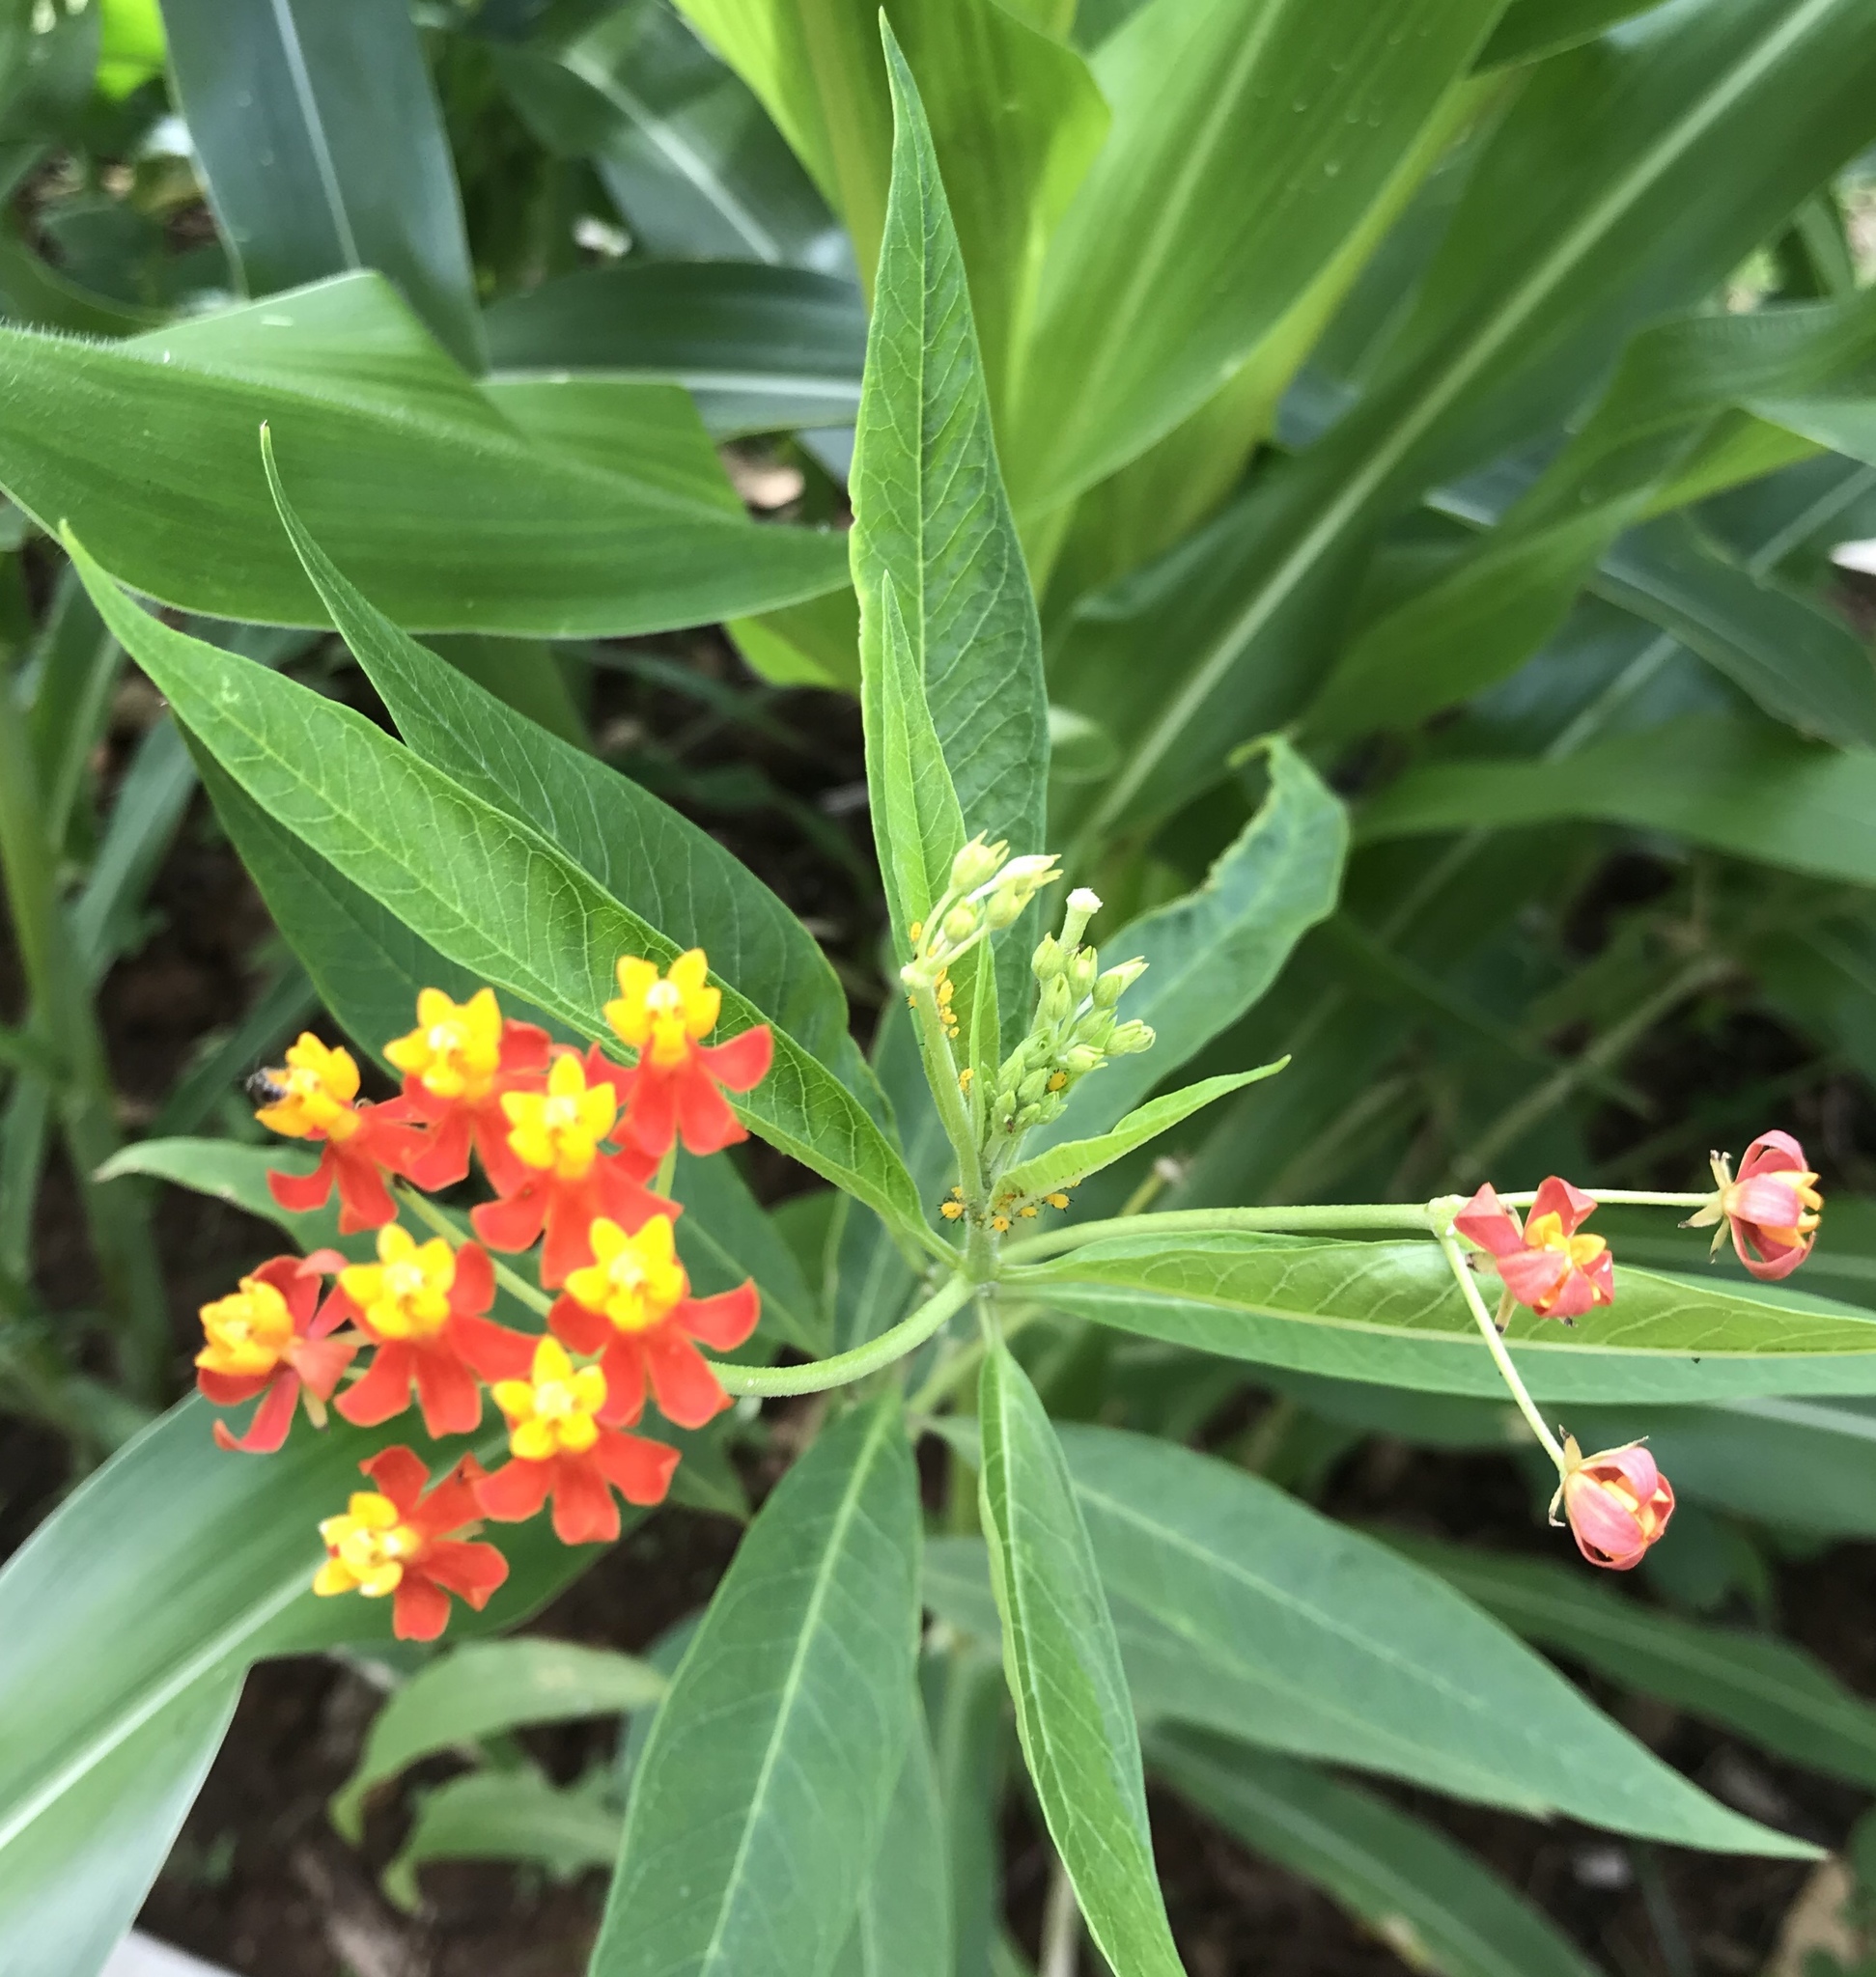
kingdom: Plantae
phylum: Tracheophyta
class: Magnoliopsida
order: Gentianales
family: Apocynaceae
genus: Asclepias
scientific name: Asclepias curassavica
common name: Bloodflower
